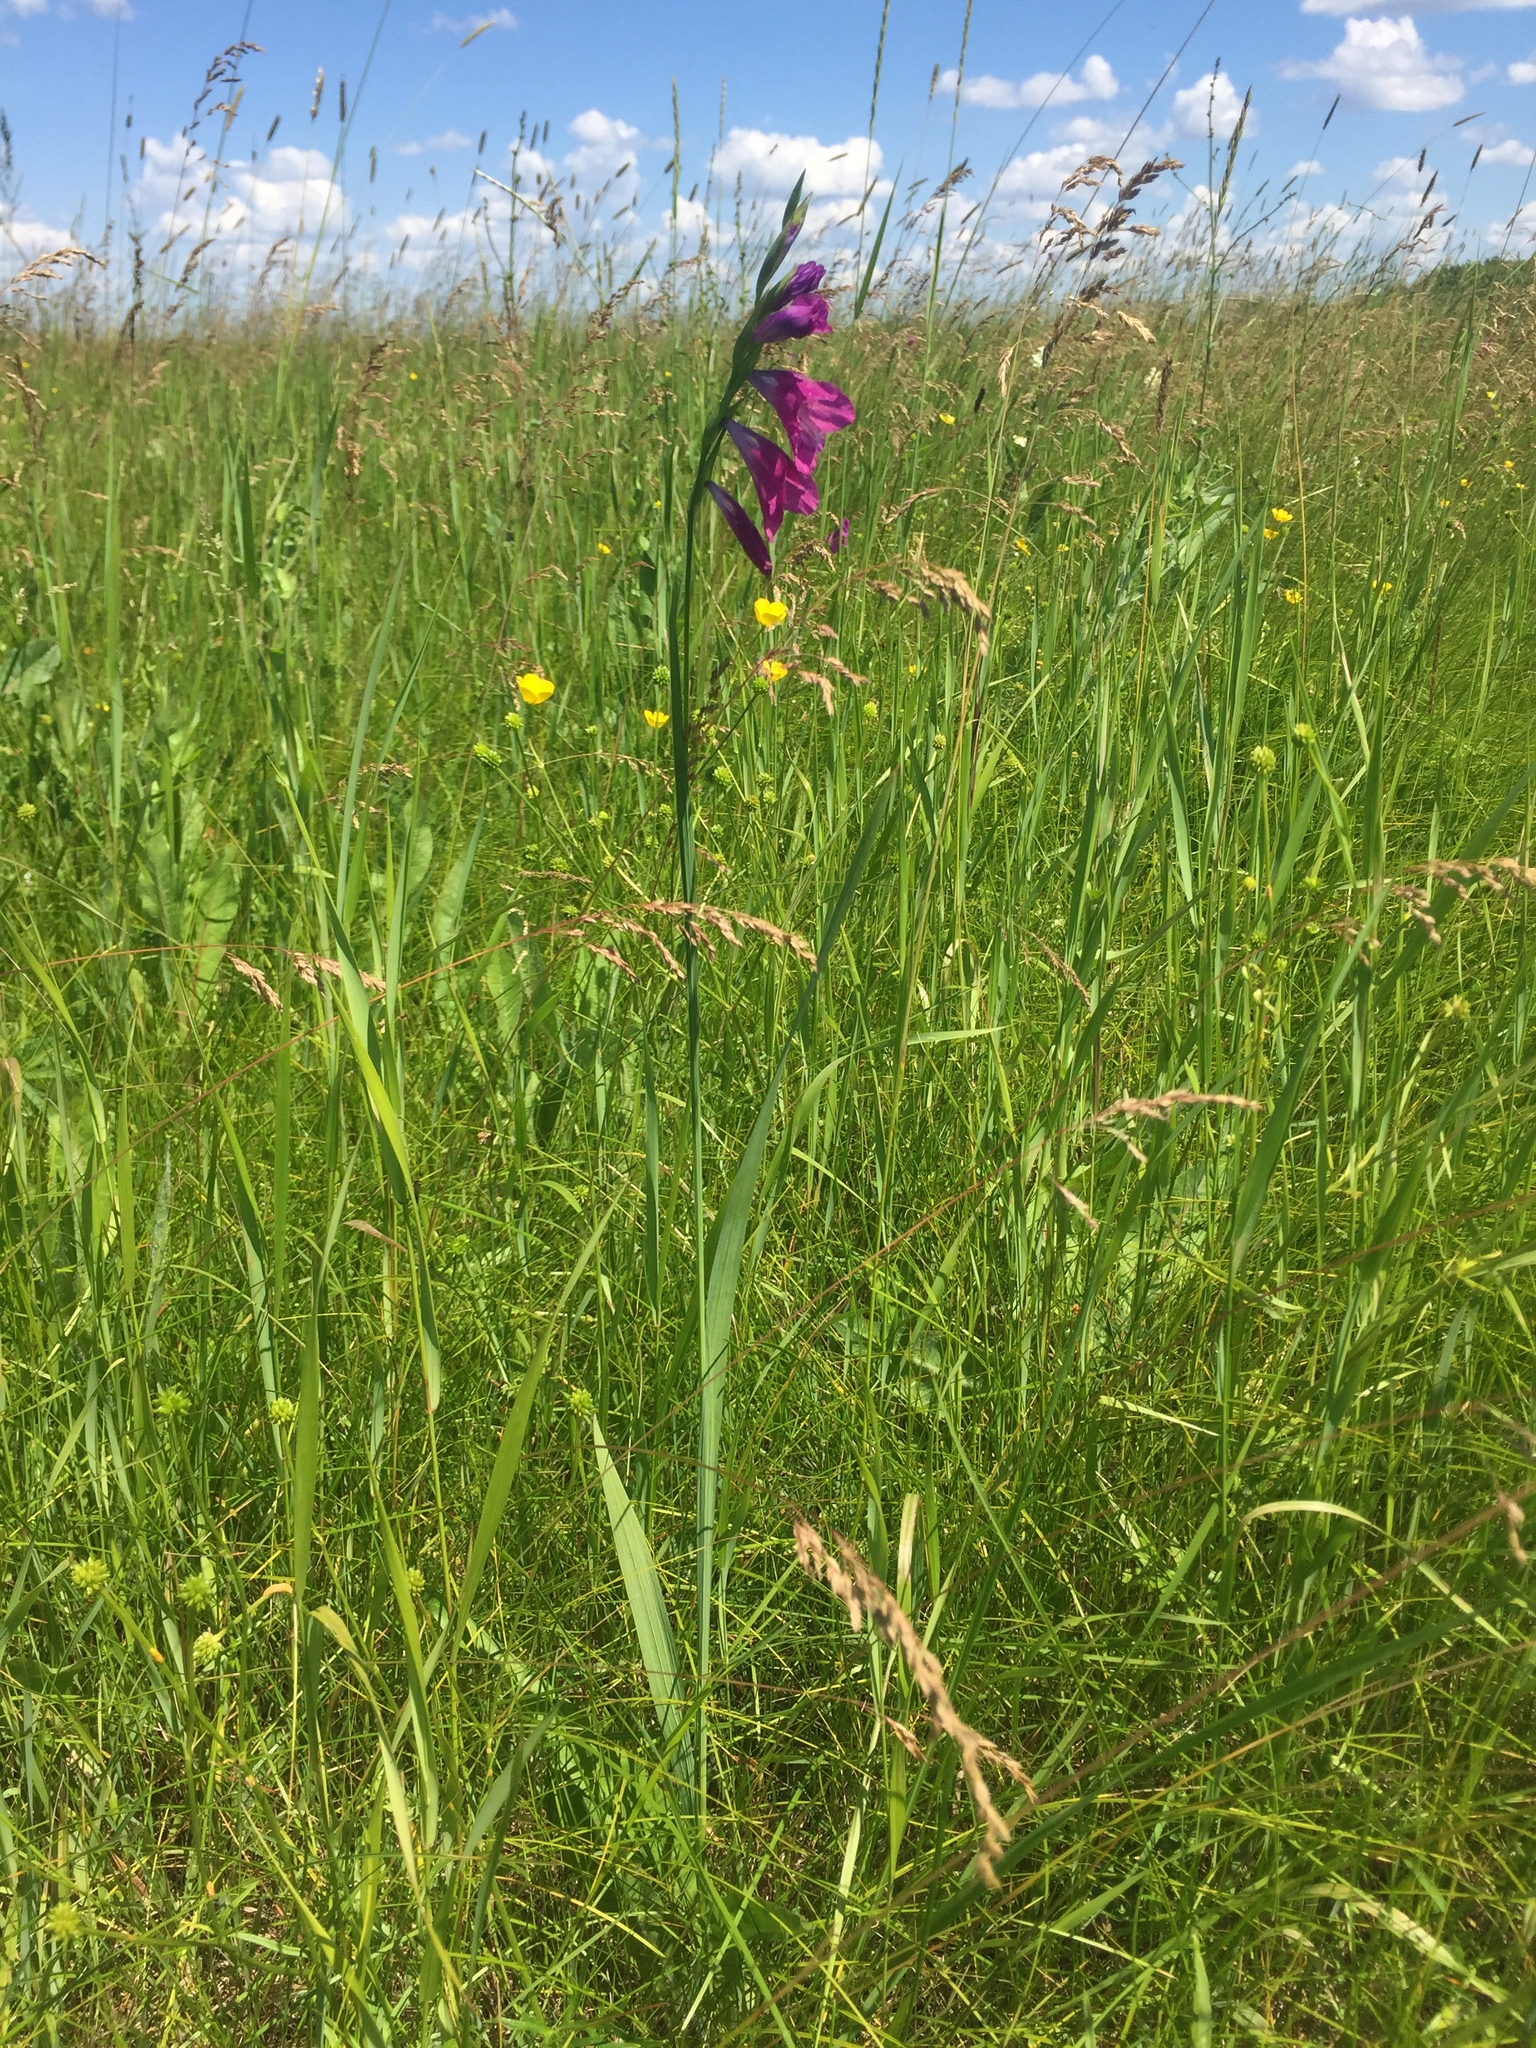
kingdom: Plantae
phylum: Tracheophyta
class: Liliopsida
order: Asparagales
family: Iridaceae
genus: Gladiolus
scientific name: Gladiolus imbricatus
